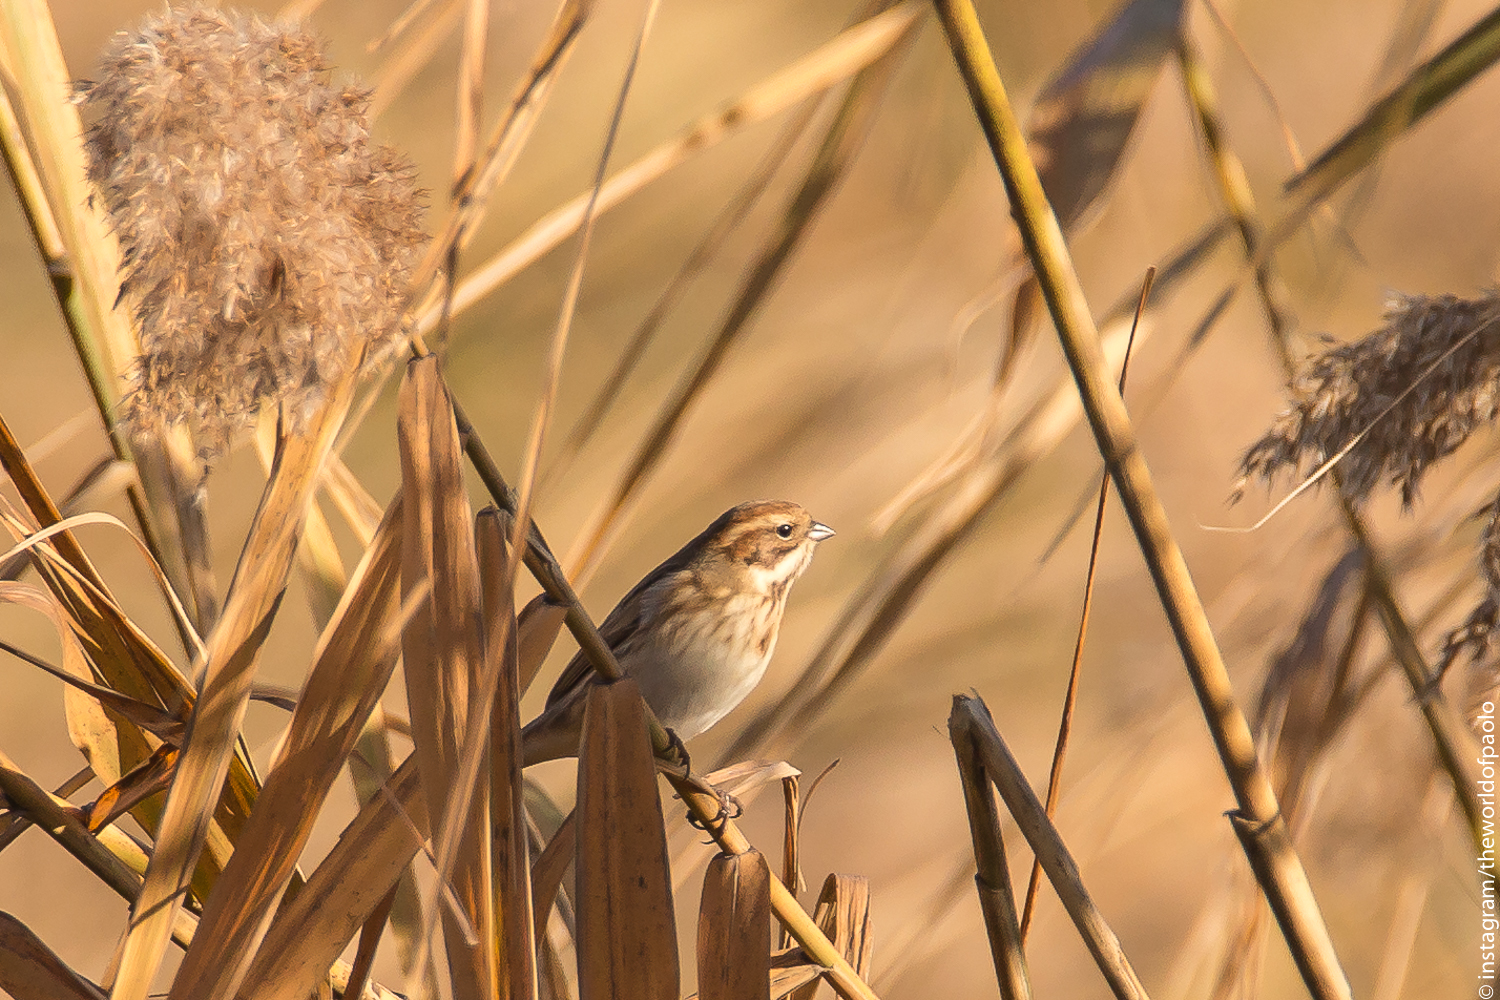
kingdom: Animalia
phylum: Chordata
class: Aves
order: Passeriformes
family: Emberizidae
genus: Emberiza
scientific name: Emberiza schoeniclus
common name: Reed bunting
